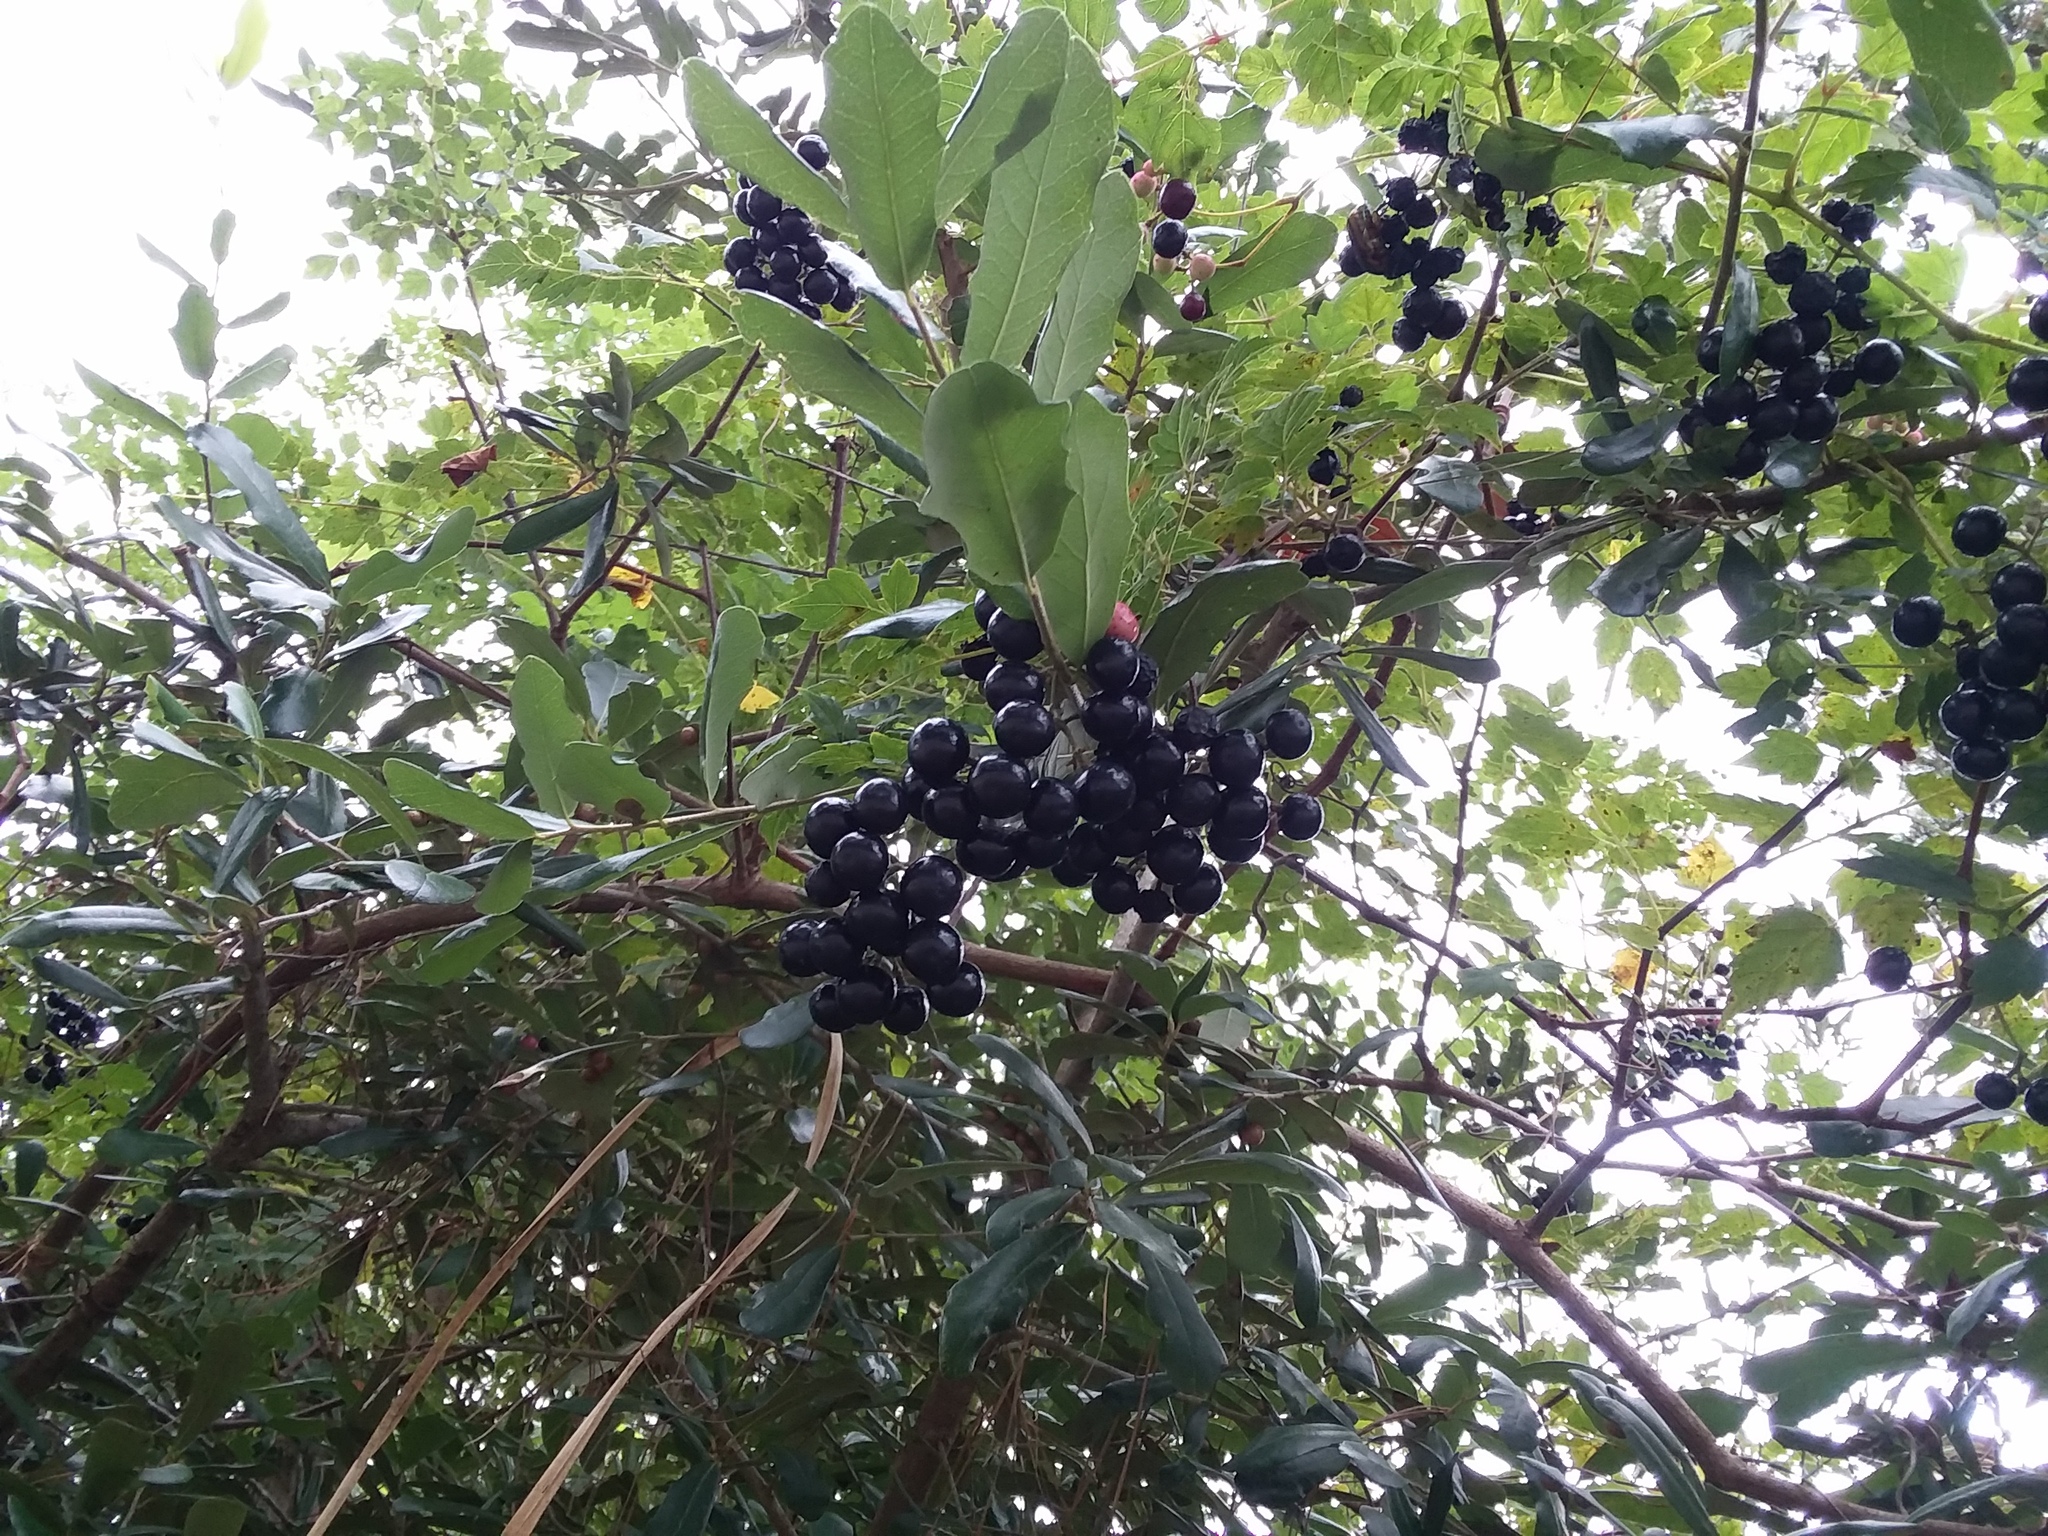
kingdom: Plantae
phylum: Tracheophyta
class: Magnoliopsida
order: Vitales
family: Vitaceae
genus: Nekemias
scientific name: Nekemias arborea
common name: Peppervine
